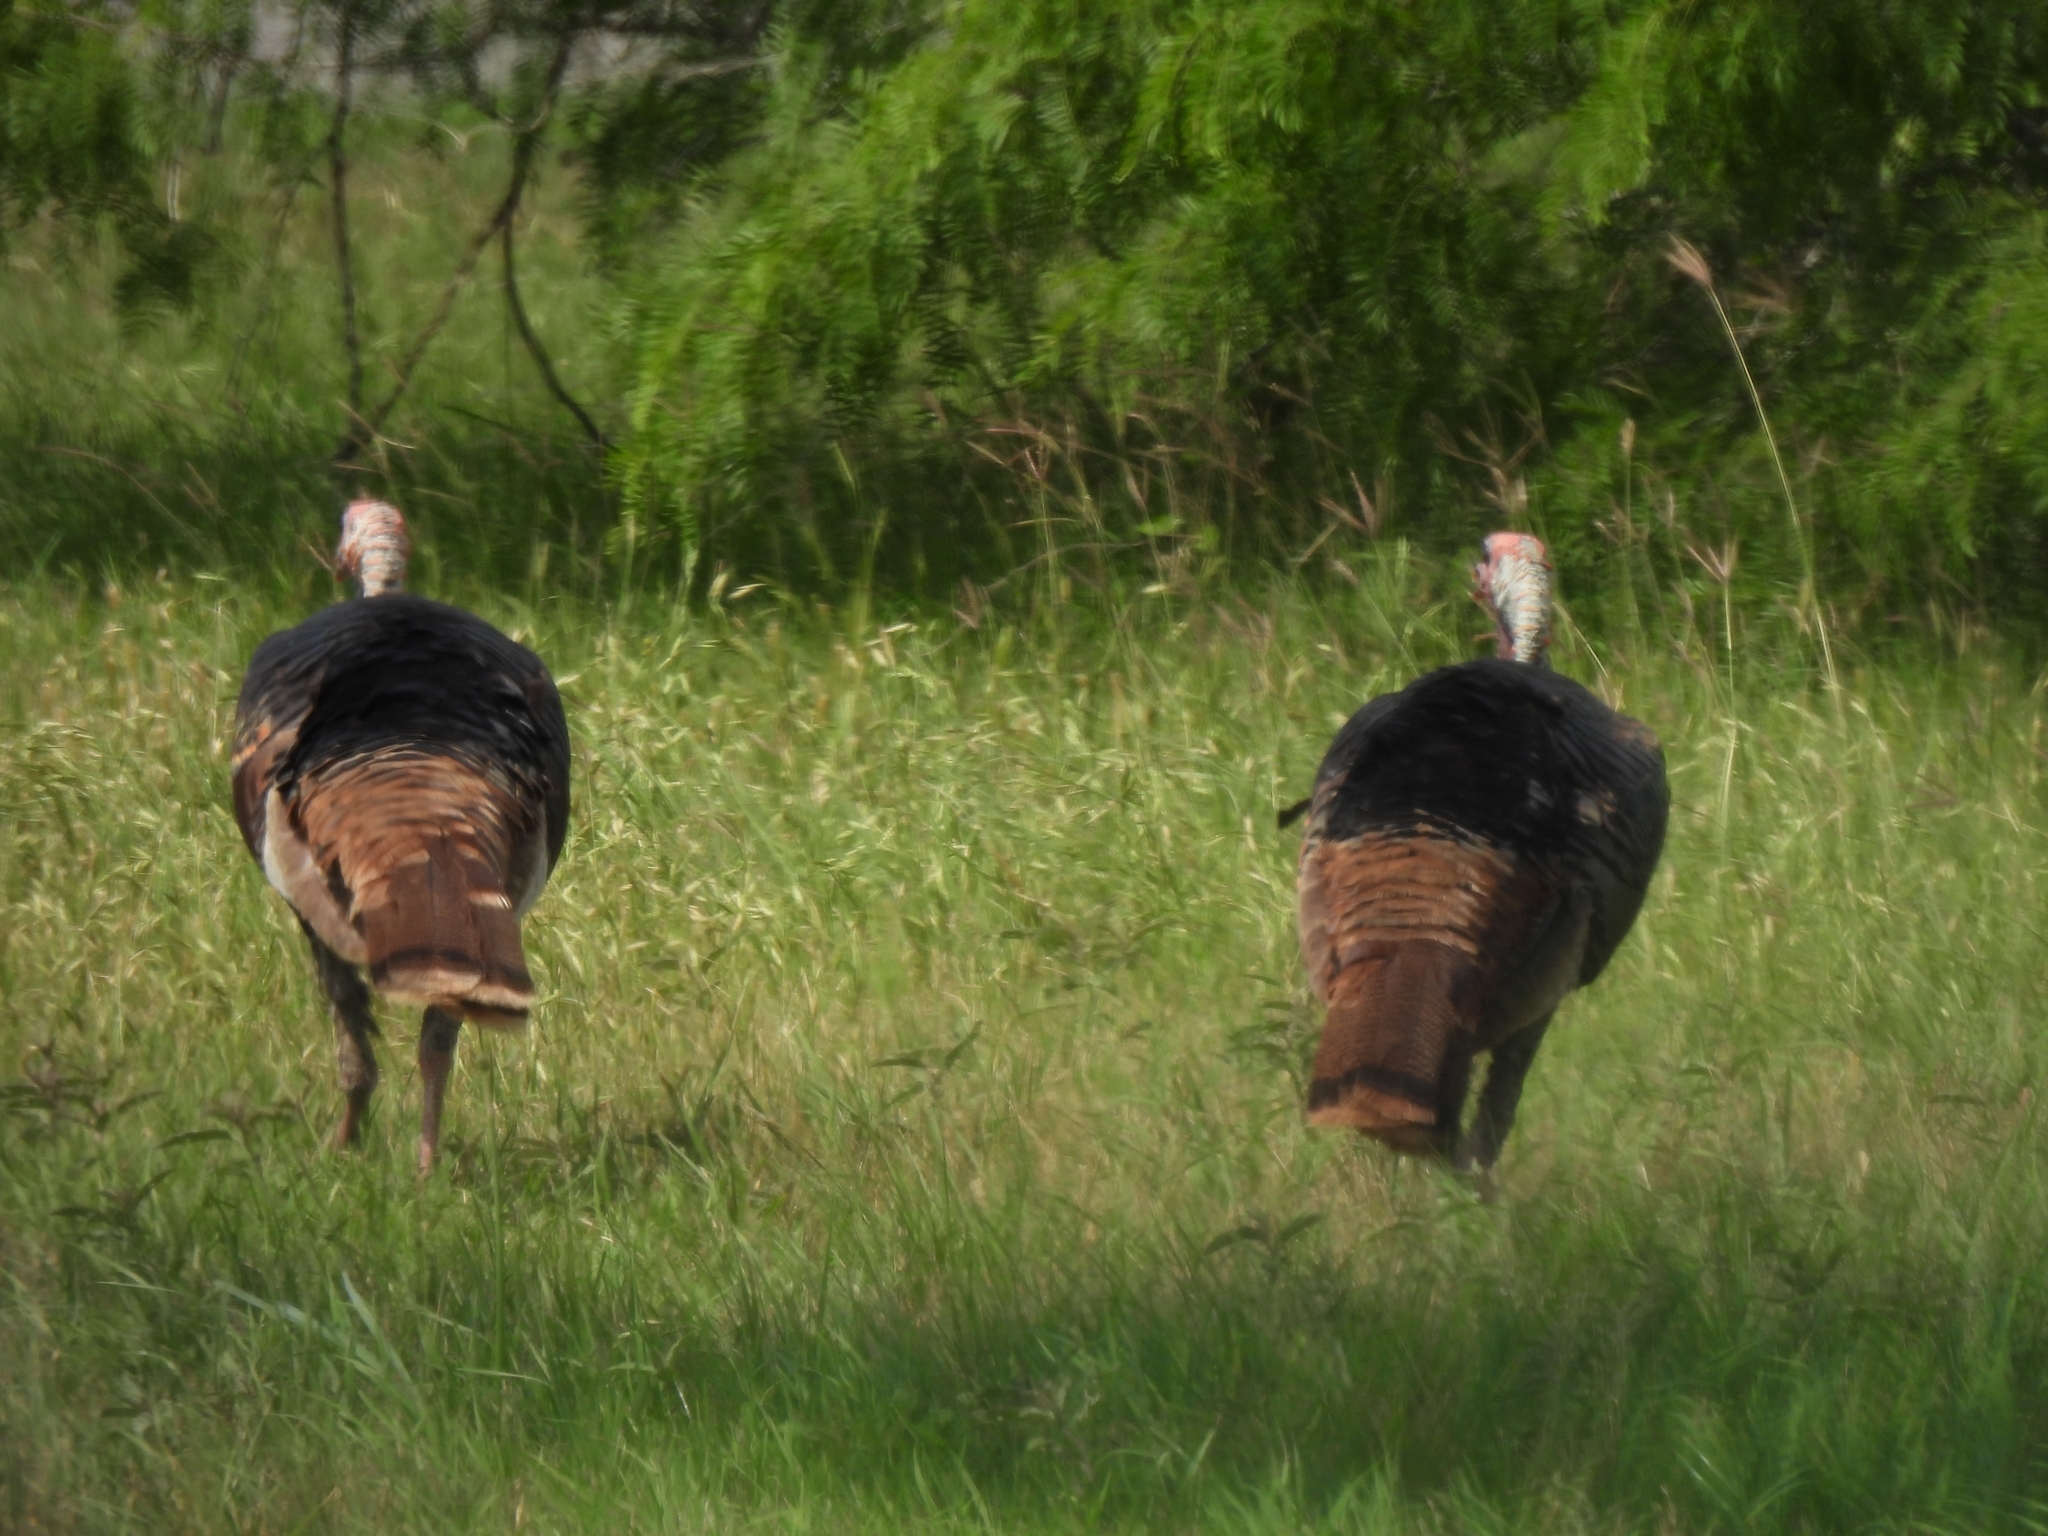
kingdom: Animalia
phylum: Chordata
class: Aves
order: Galliformes
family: Phasianidae
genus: Meleagris
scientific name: Meleagris gallopavo
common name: Wild turkey
